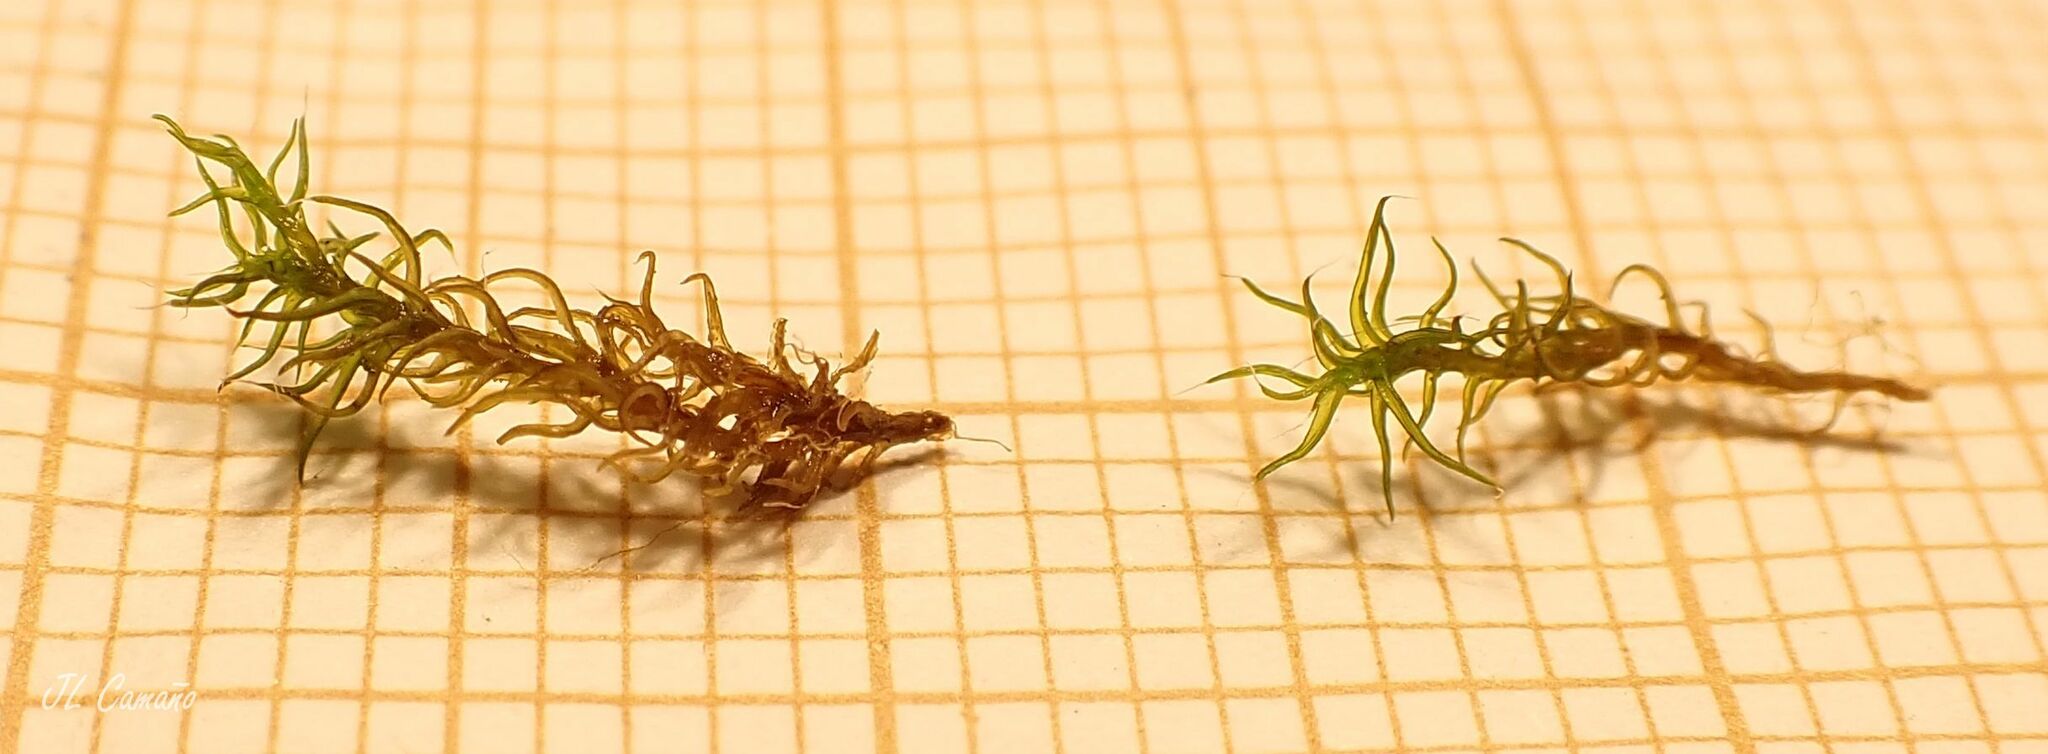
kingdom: Plantae
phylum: Bryophyta
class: Bryopsida
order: Grimmiales
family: Grimmiaceae
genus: Grimmia
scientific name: Grimmia montana
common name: Sun grimmia
